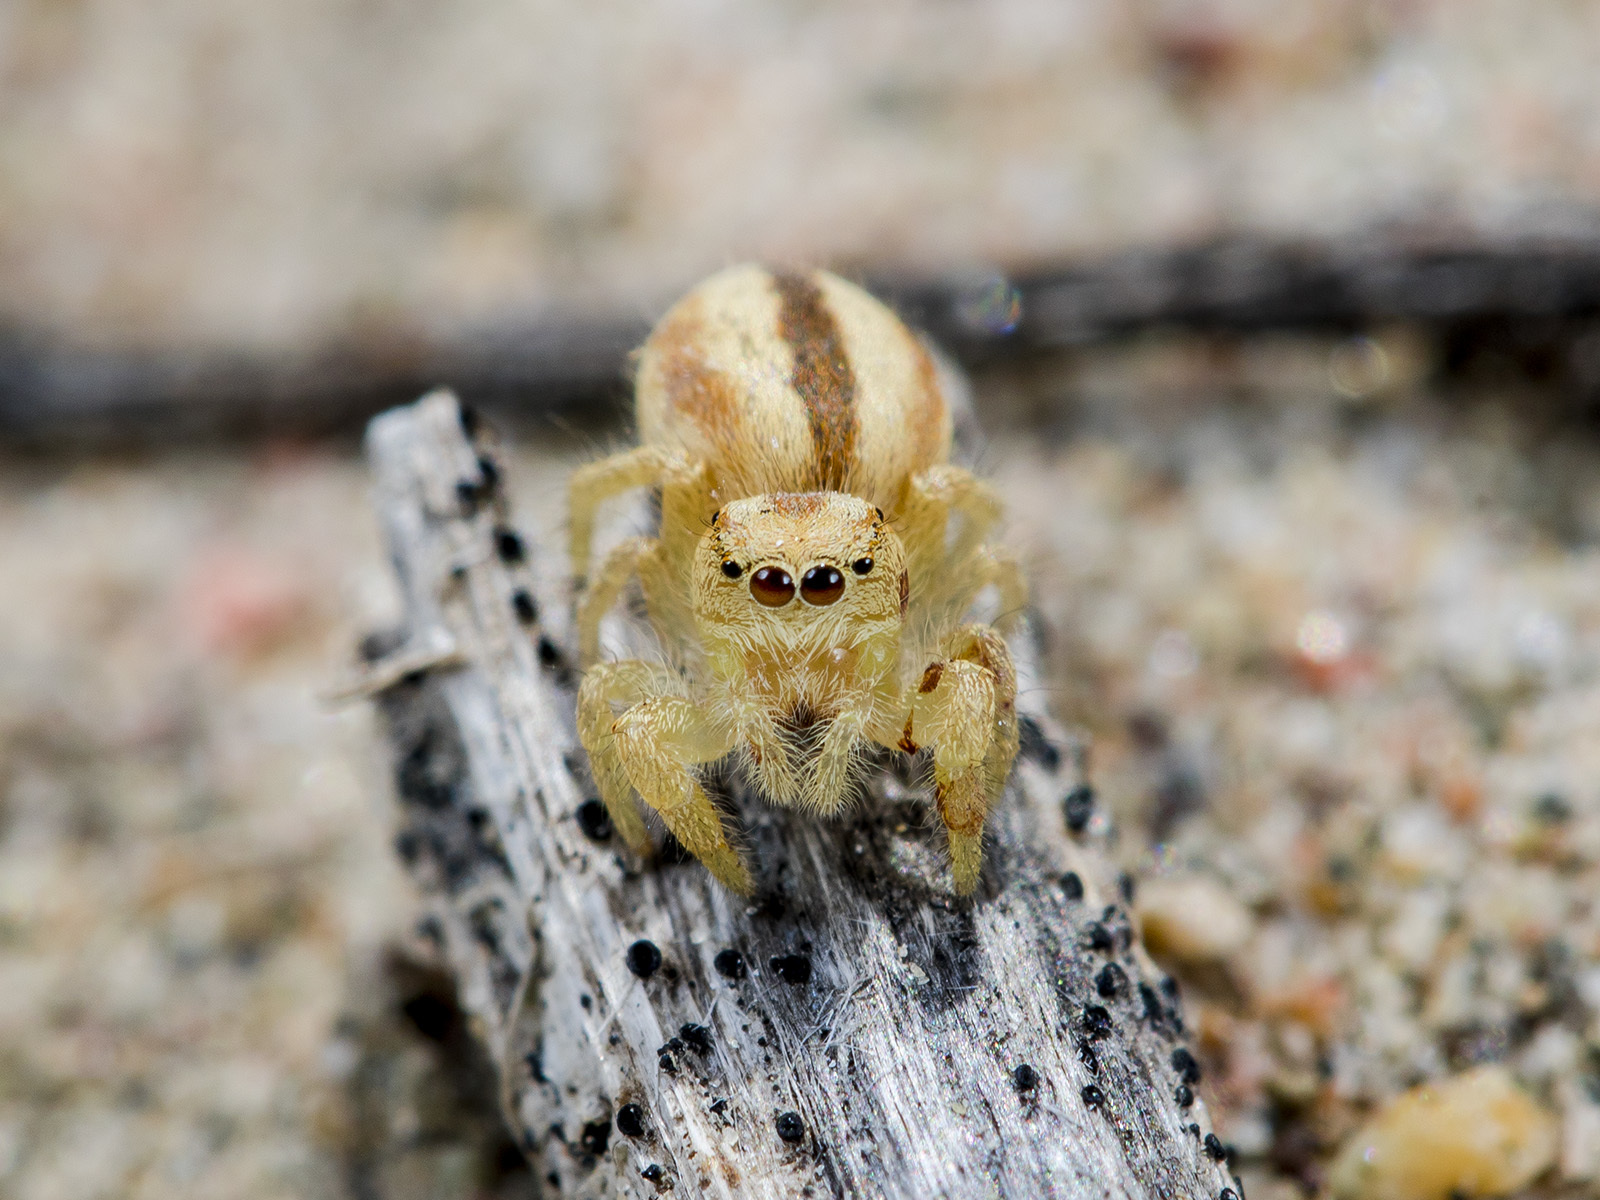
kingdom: Animalia
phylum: Arthropoda
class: Arachnida
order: Araneae
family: Salticidae
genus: Pseudomogrus
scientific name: Pseudomogrus zhilgaensis
